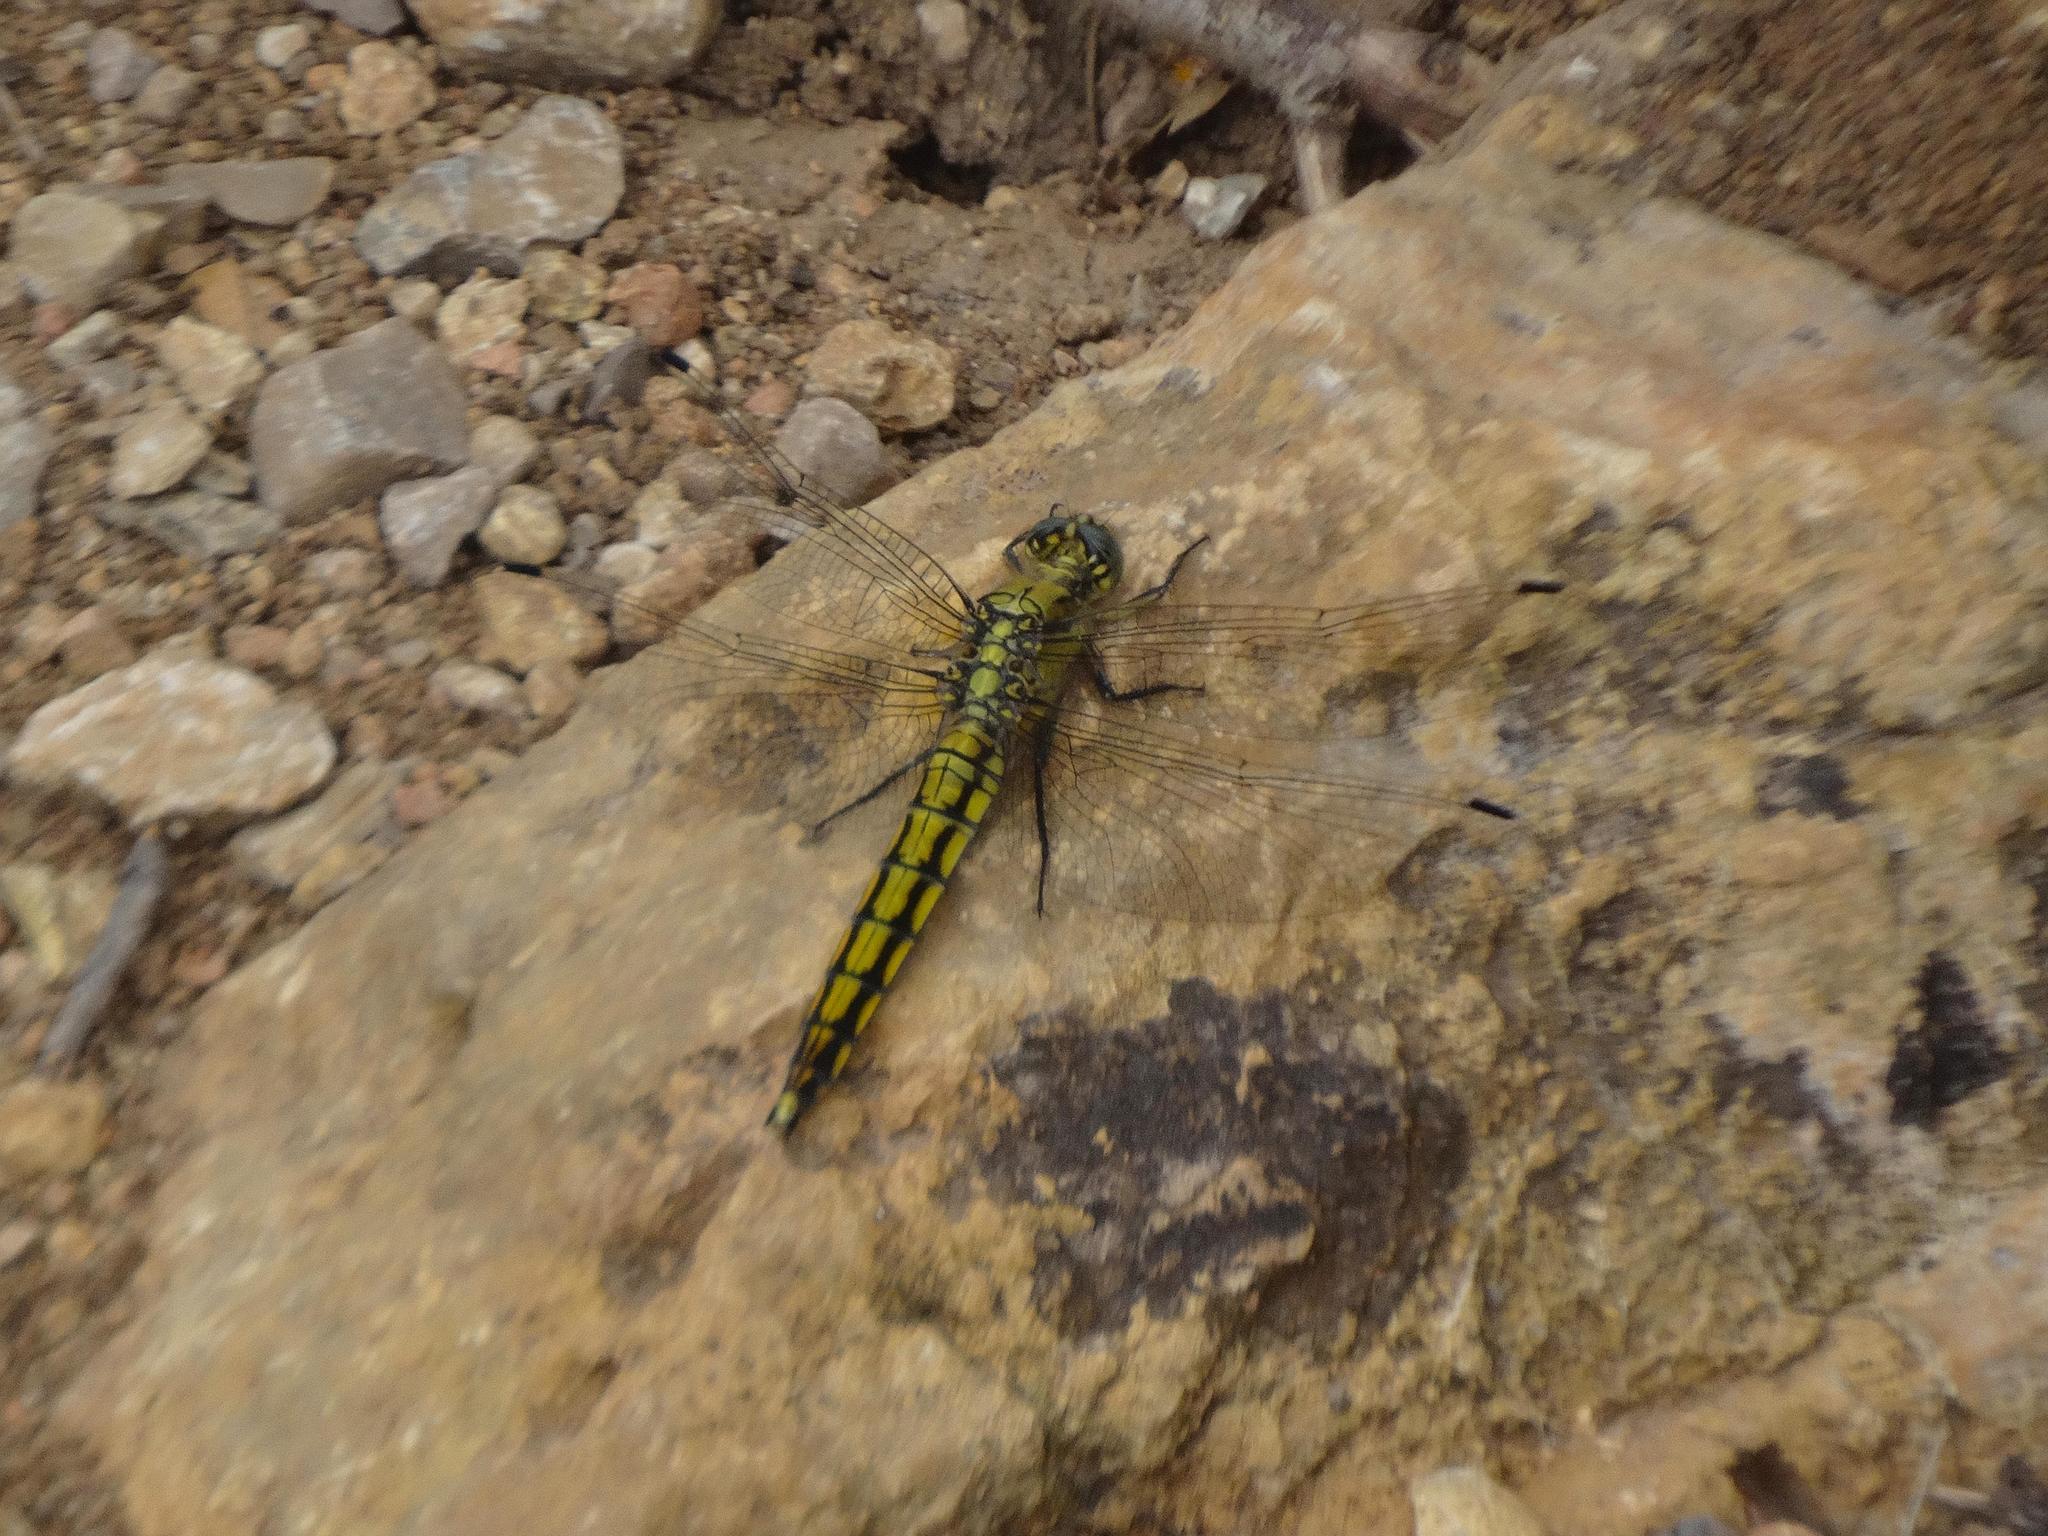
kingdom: Animalia
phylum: Arthropoda
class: Insecta
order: Odonata
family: Libellulidae
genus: Orthetrum
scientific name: Orthetrum cancellatum
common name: Black-tailed skimmer
